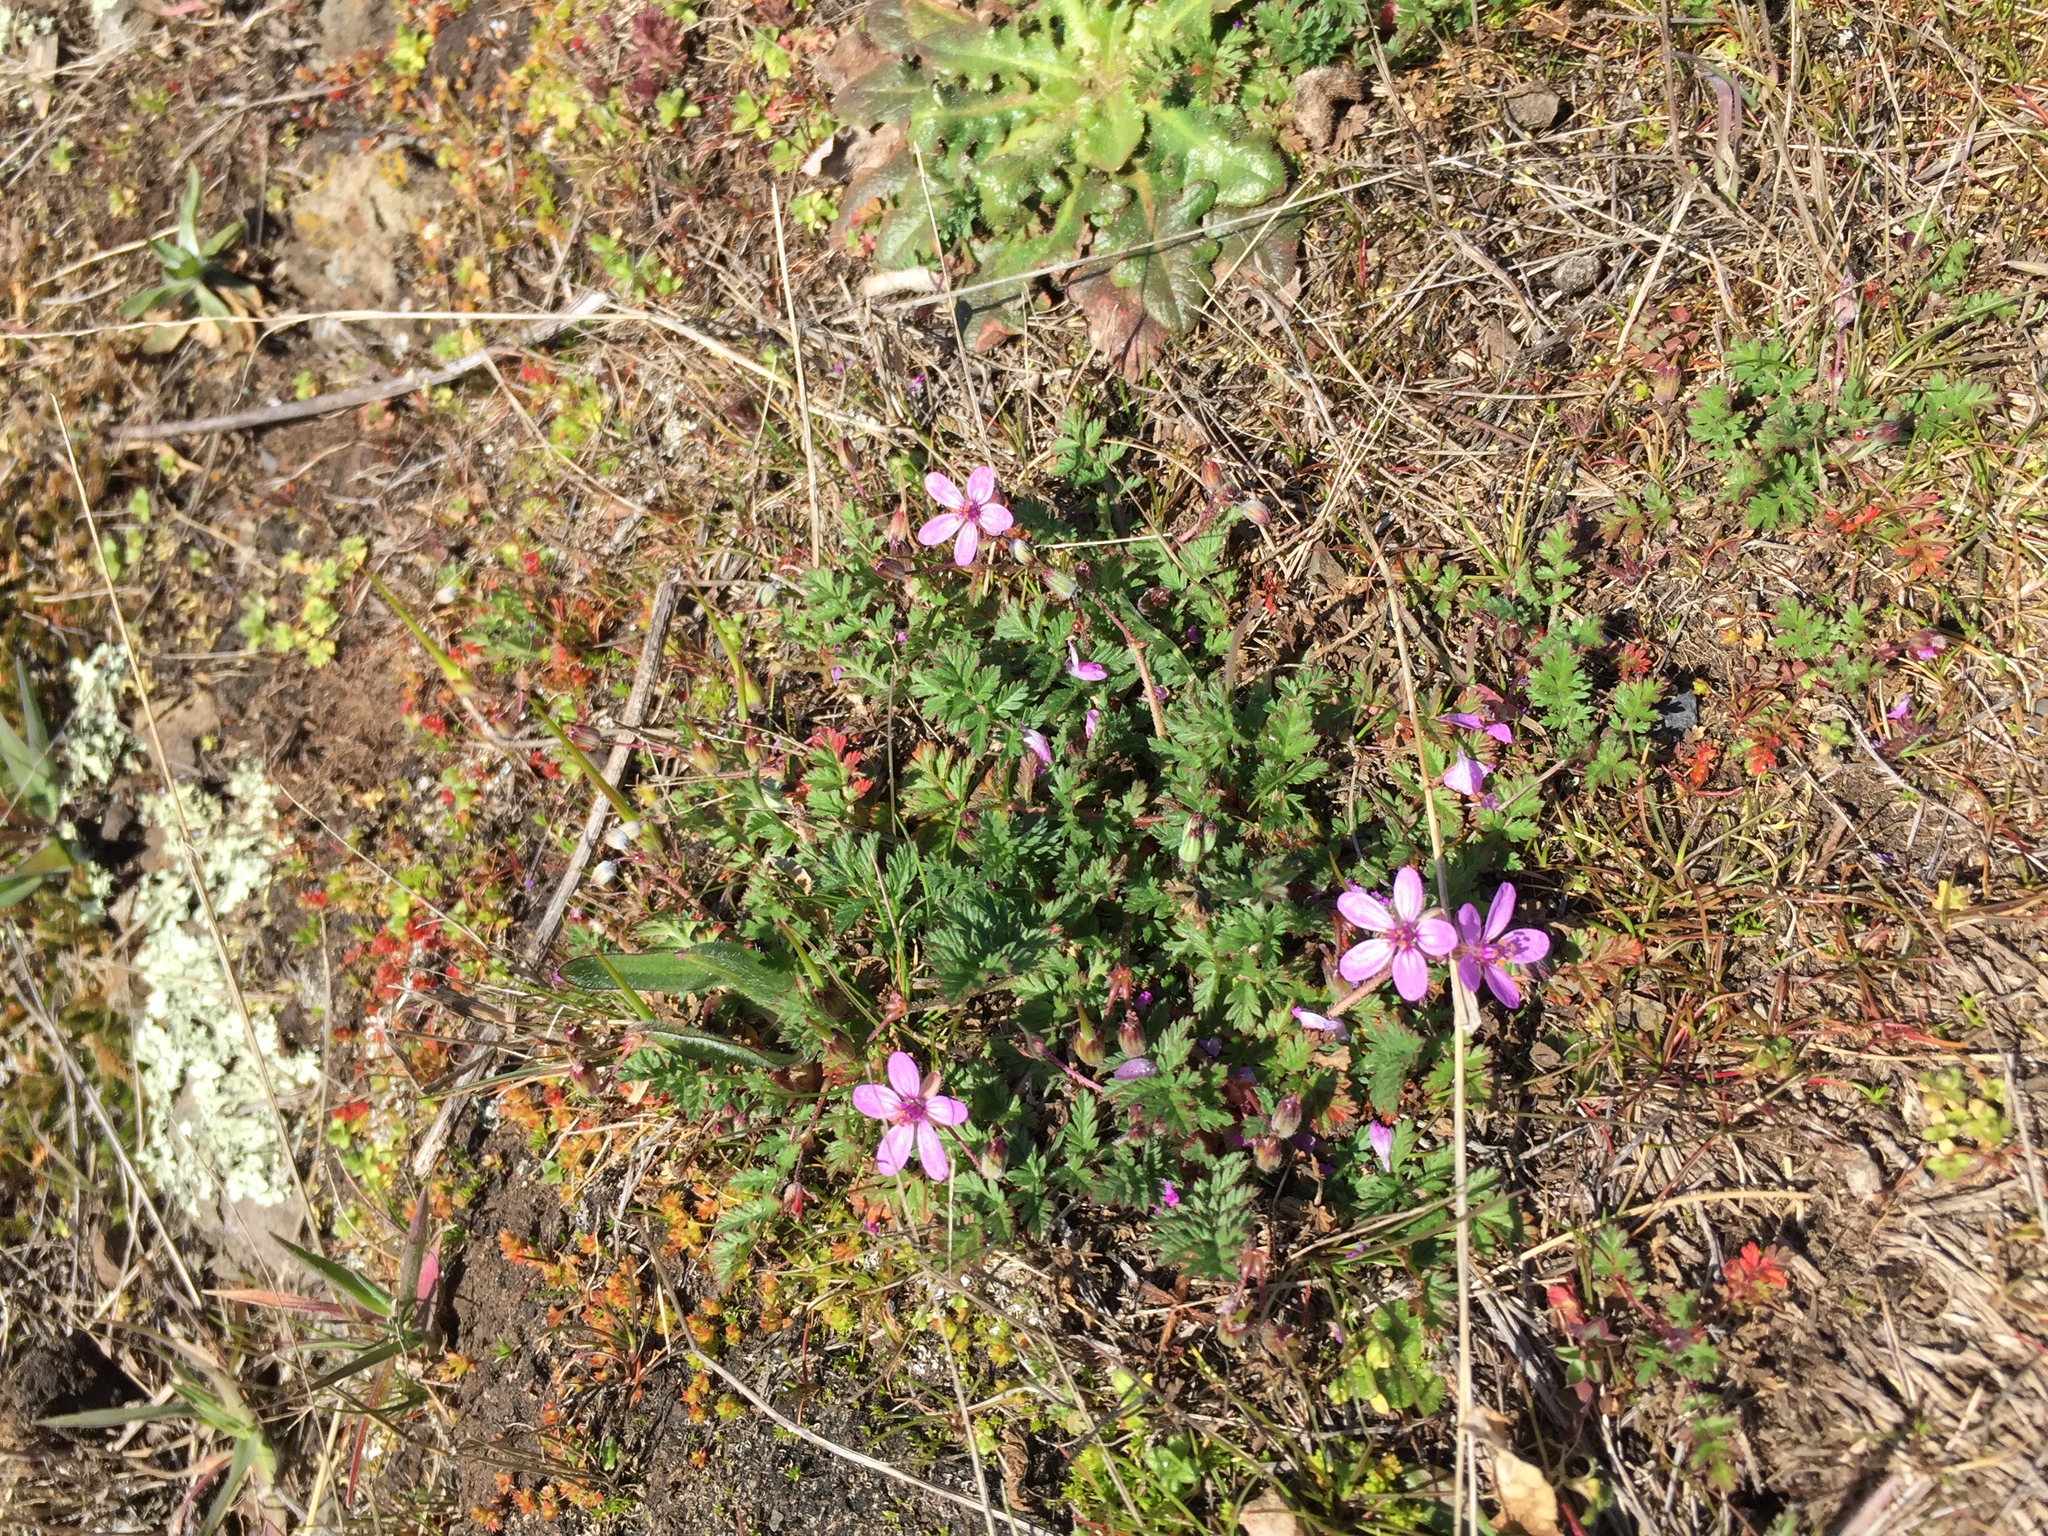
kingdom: Plantae
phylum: Tracheophyta
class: Magnoliopsida
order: Geraniales
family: Geraniaceae
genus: Erodium
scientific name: Erodium cicutarium
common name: Common stork's-bill
